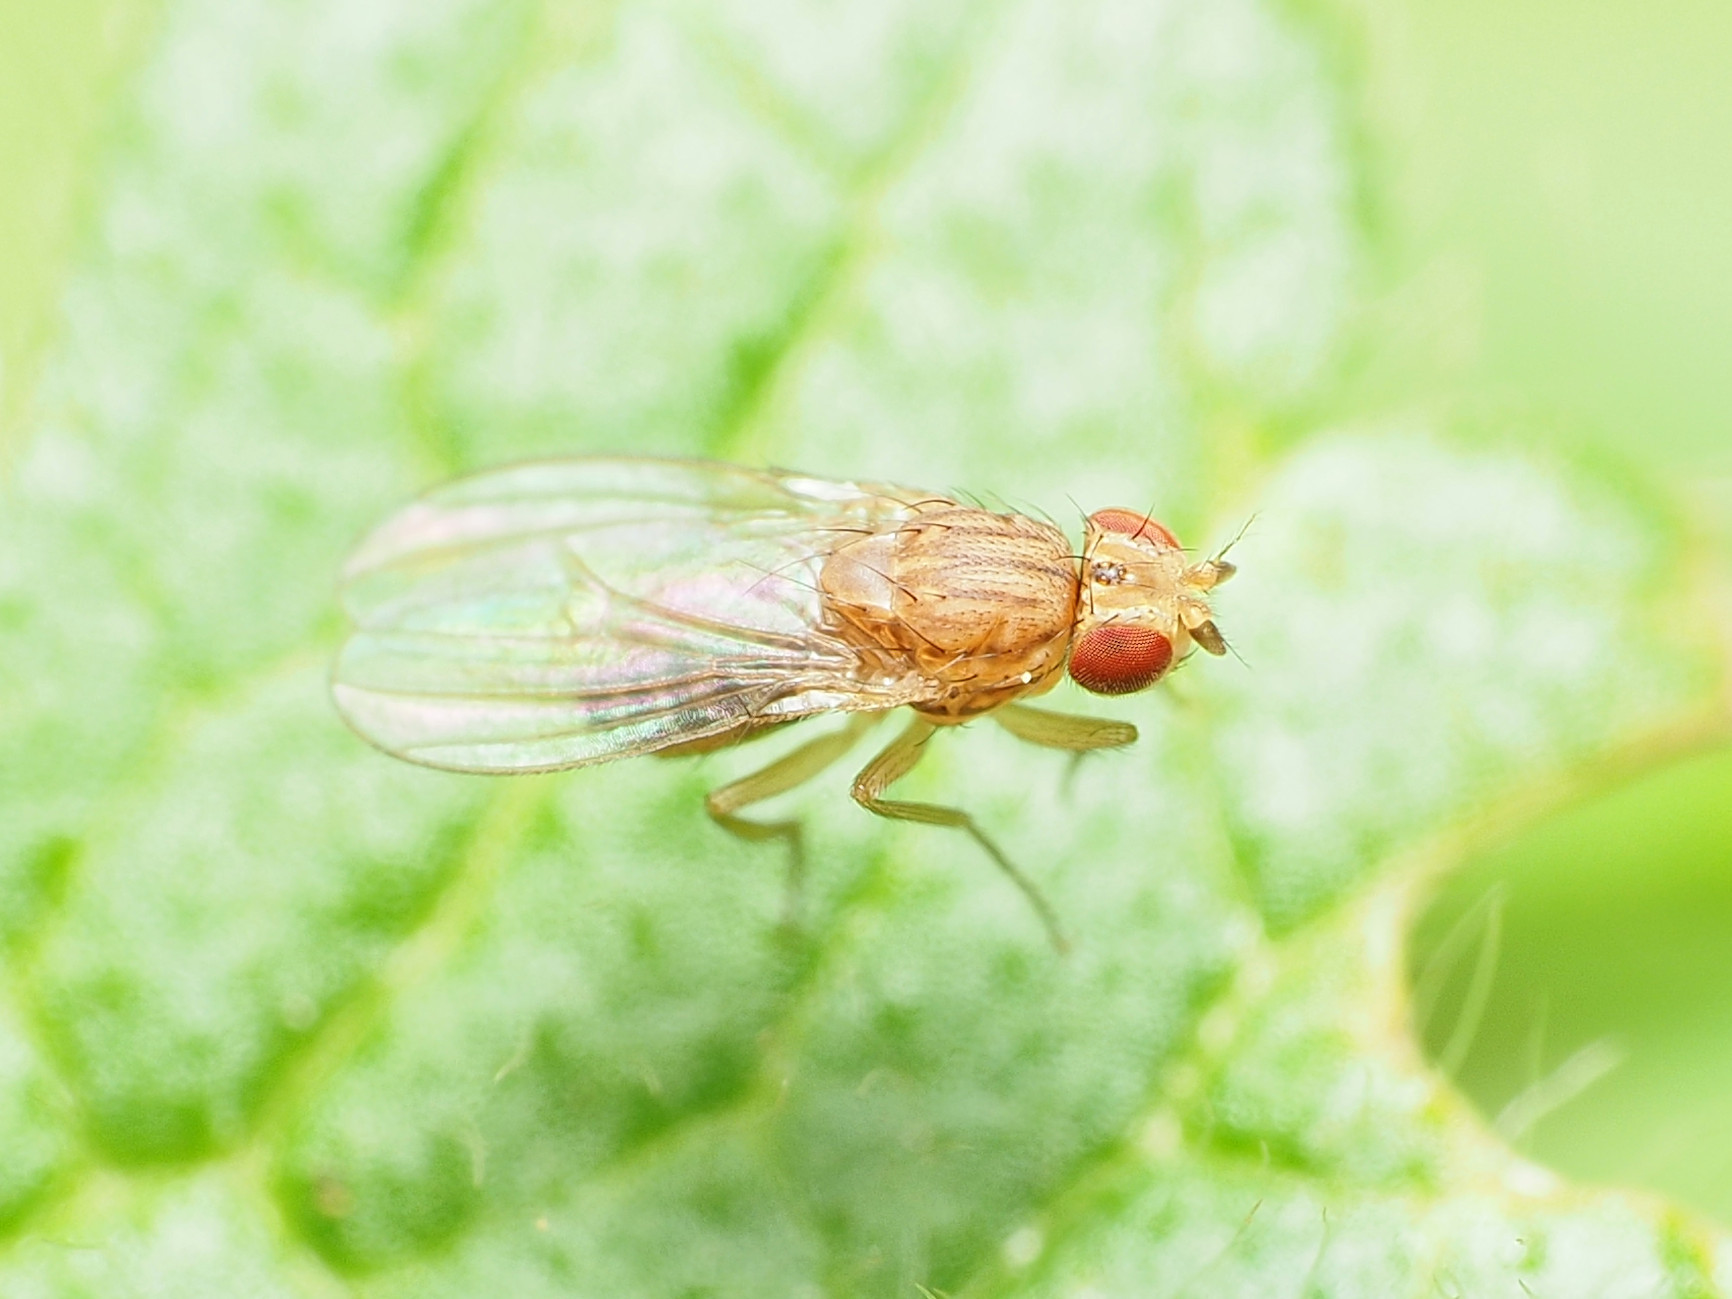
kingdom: Animalia
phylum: Arthropoda
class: Insecta
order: Diptera
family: Drosophilidae
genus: Drosophila
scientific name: Drosophila busckii
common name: Pomace fly
